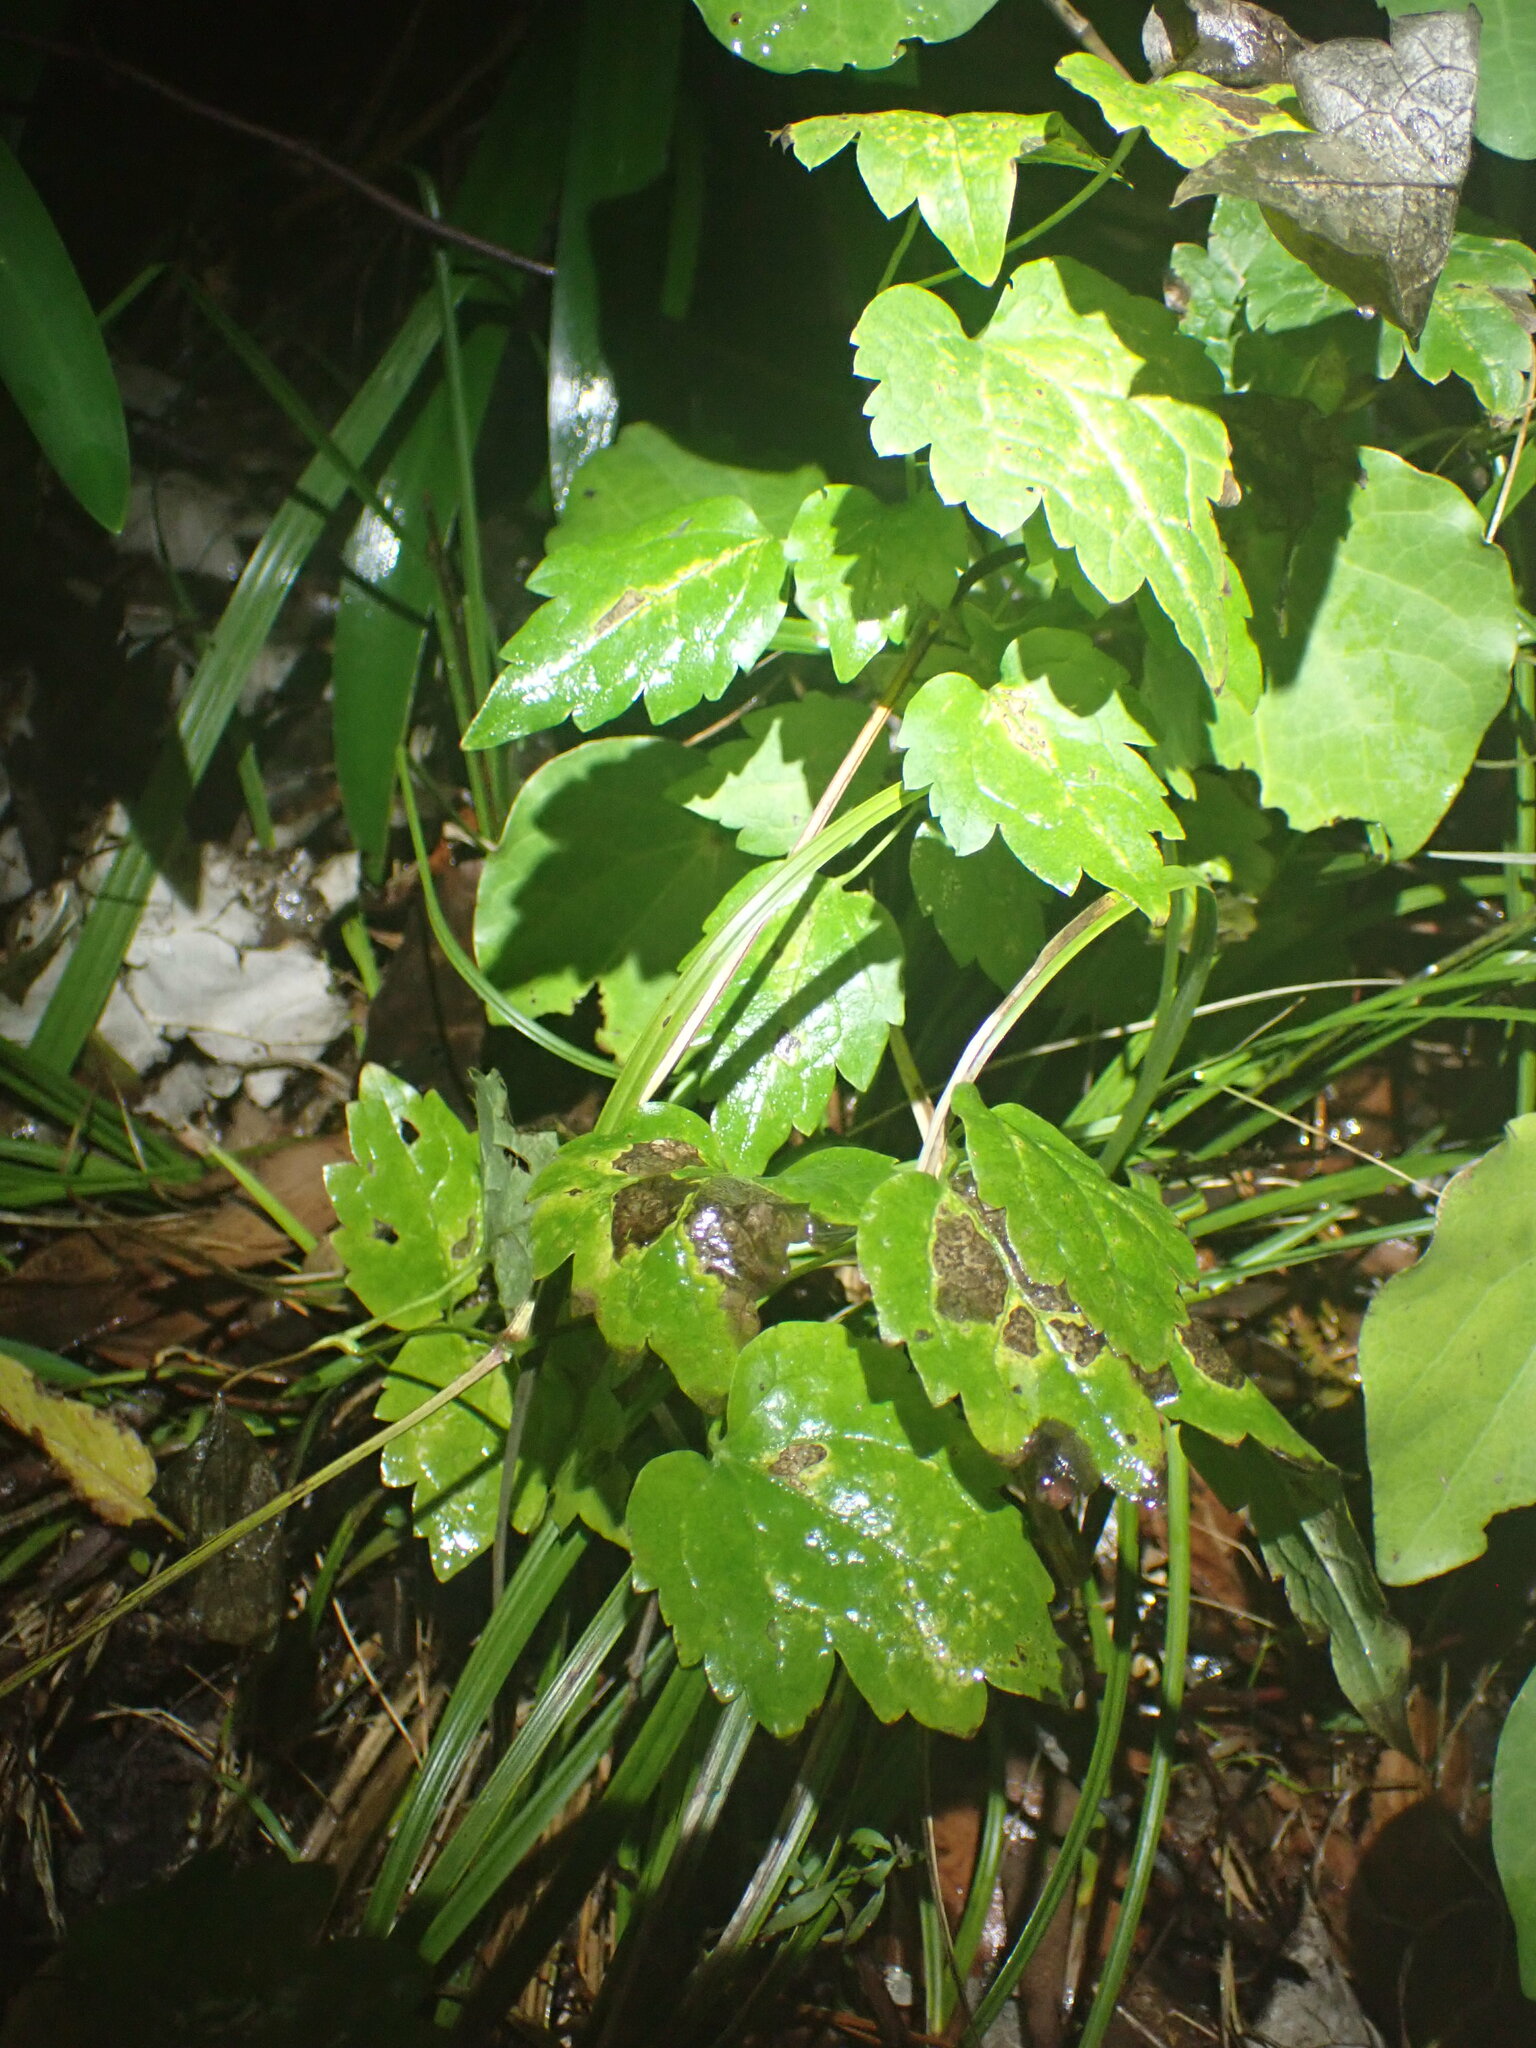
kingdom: Plantae
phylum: Tracheophyta
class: Magnoliopsida
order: Ranunculales
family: Ranunculaceae
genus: Clematis
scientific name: Clematis vitalba
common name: Evergreen clematis
